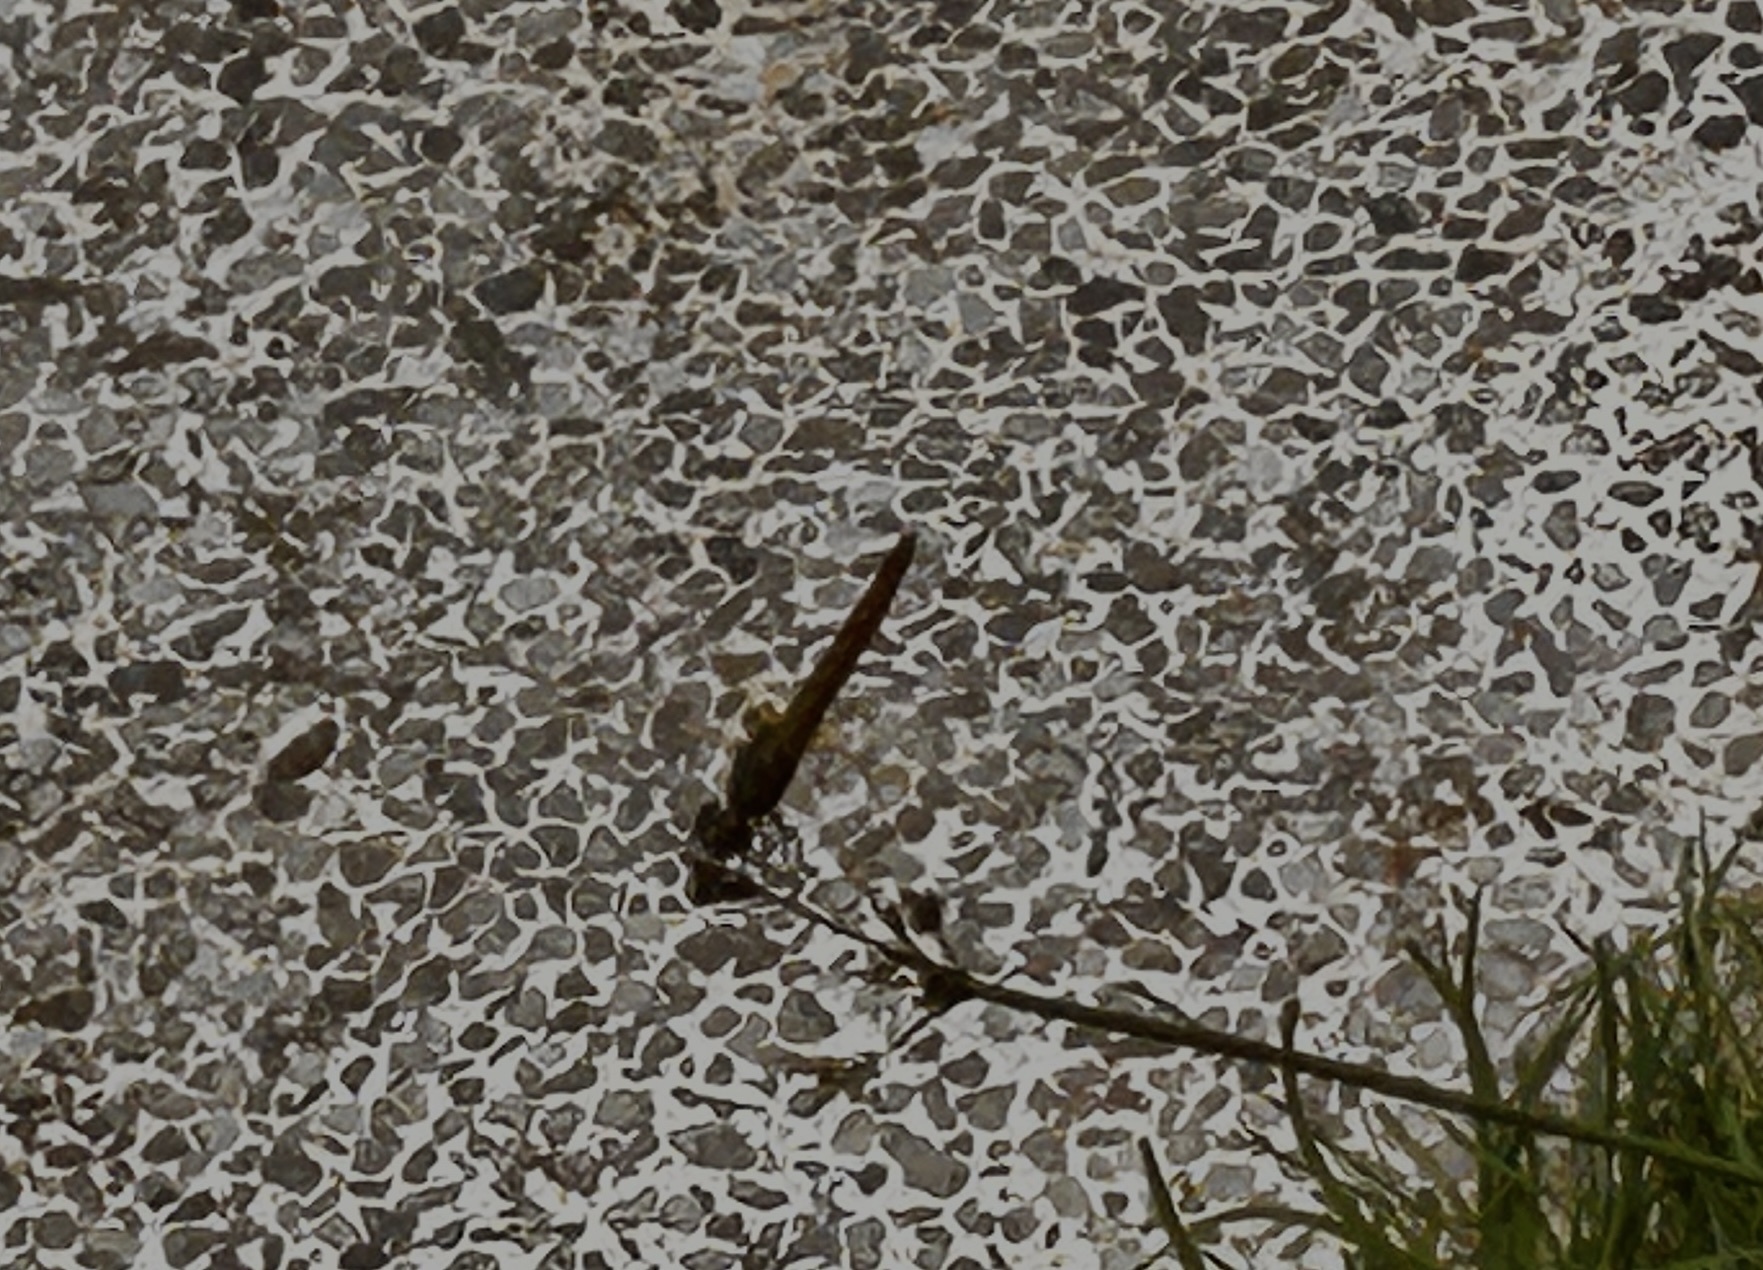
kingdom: Animalia
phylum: Arthropoda
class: Insecta
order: Odonata
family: Libellulidae
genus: Pantala
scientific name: Pantala flavescens
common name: Wandering glider
